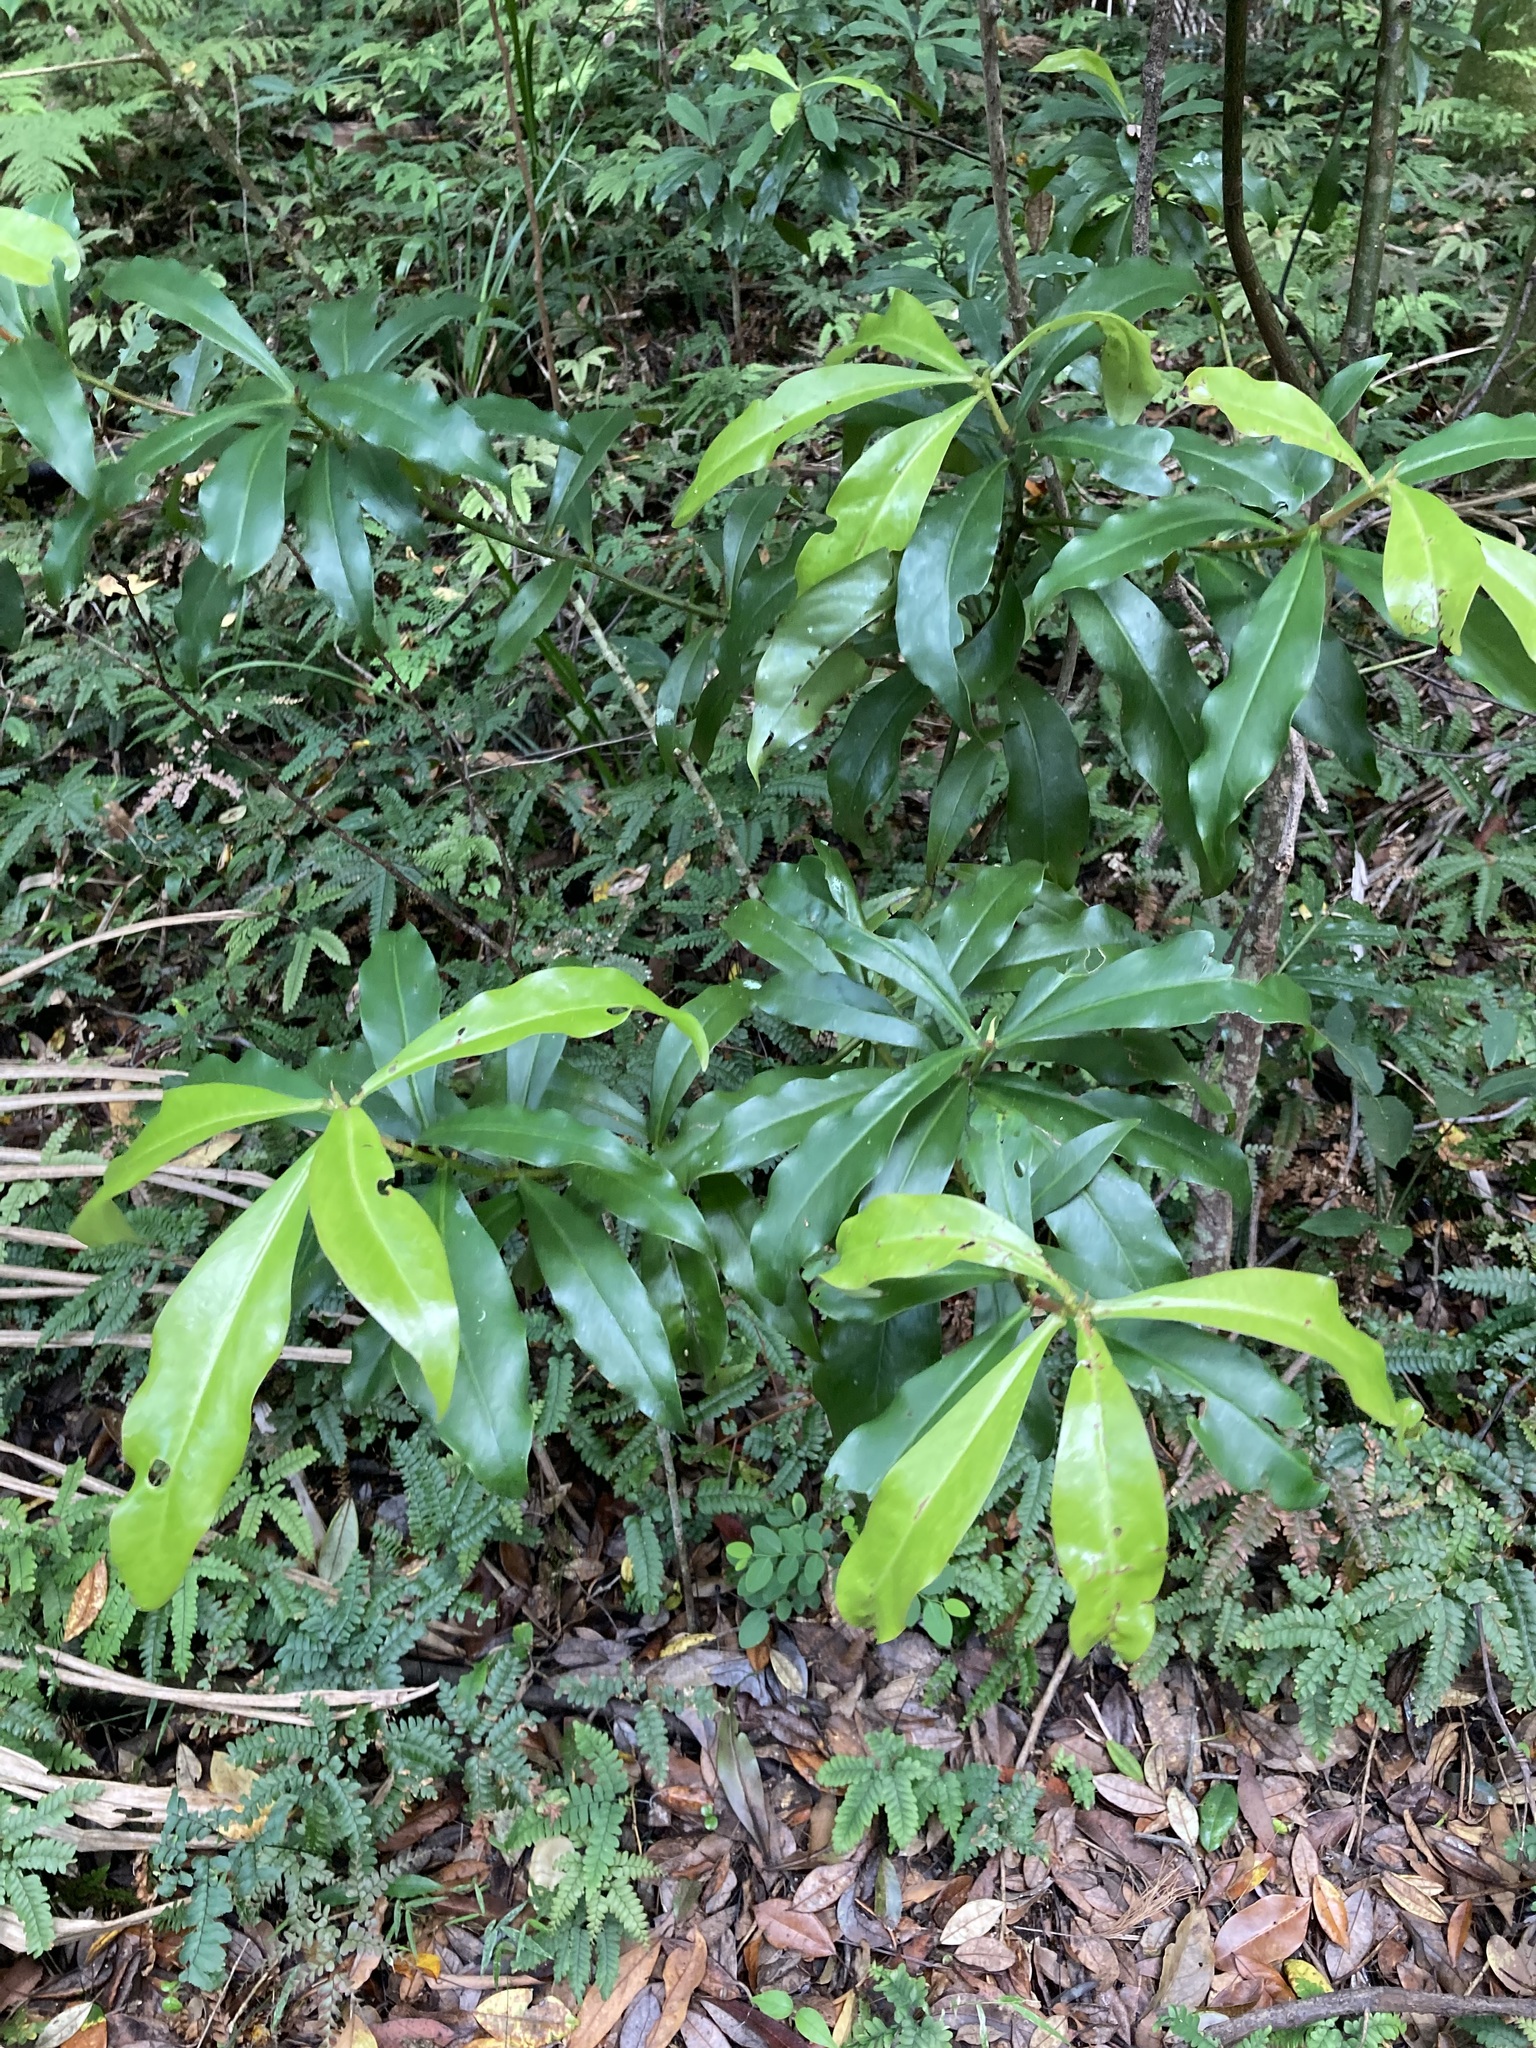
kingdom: Plantae
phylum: Tracheophyta
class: Magnoliopsida
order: Canellales
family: Winteraceae
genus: Drimys
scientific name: Drimys insipida
